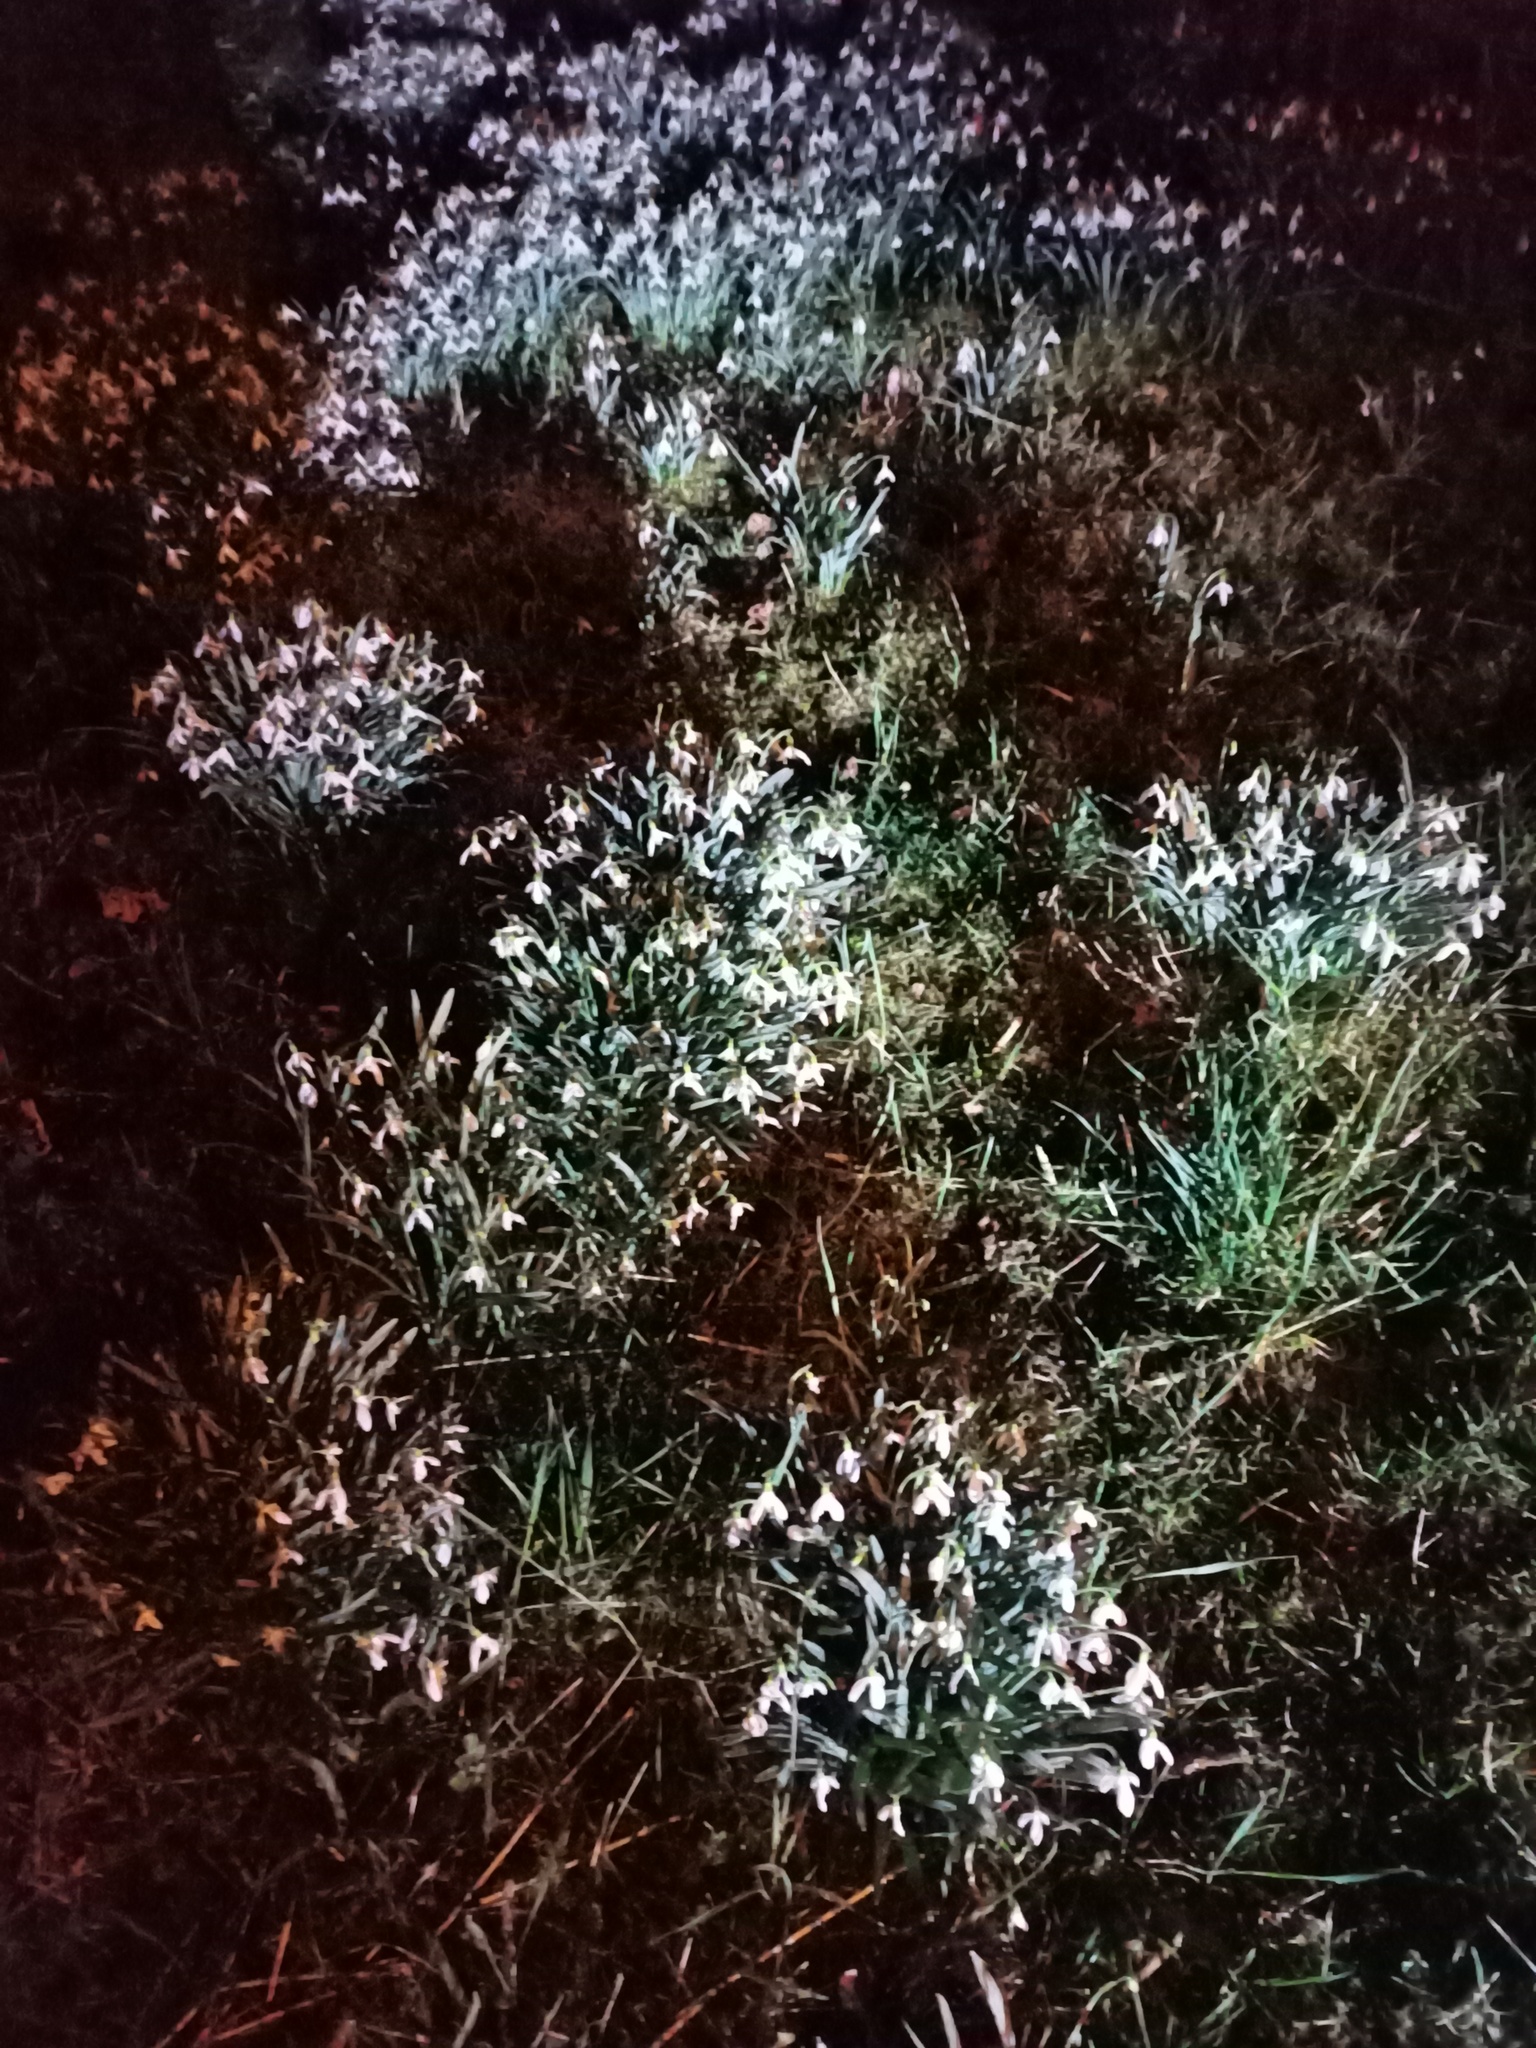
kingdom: Plantae
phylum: Tracheophyta
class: Liliopsida
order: Asparagales
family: Amaryllidaceae
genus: Galanthus
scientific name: Galanthus nivalis
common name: Snowdrop
